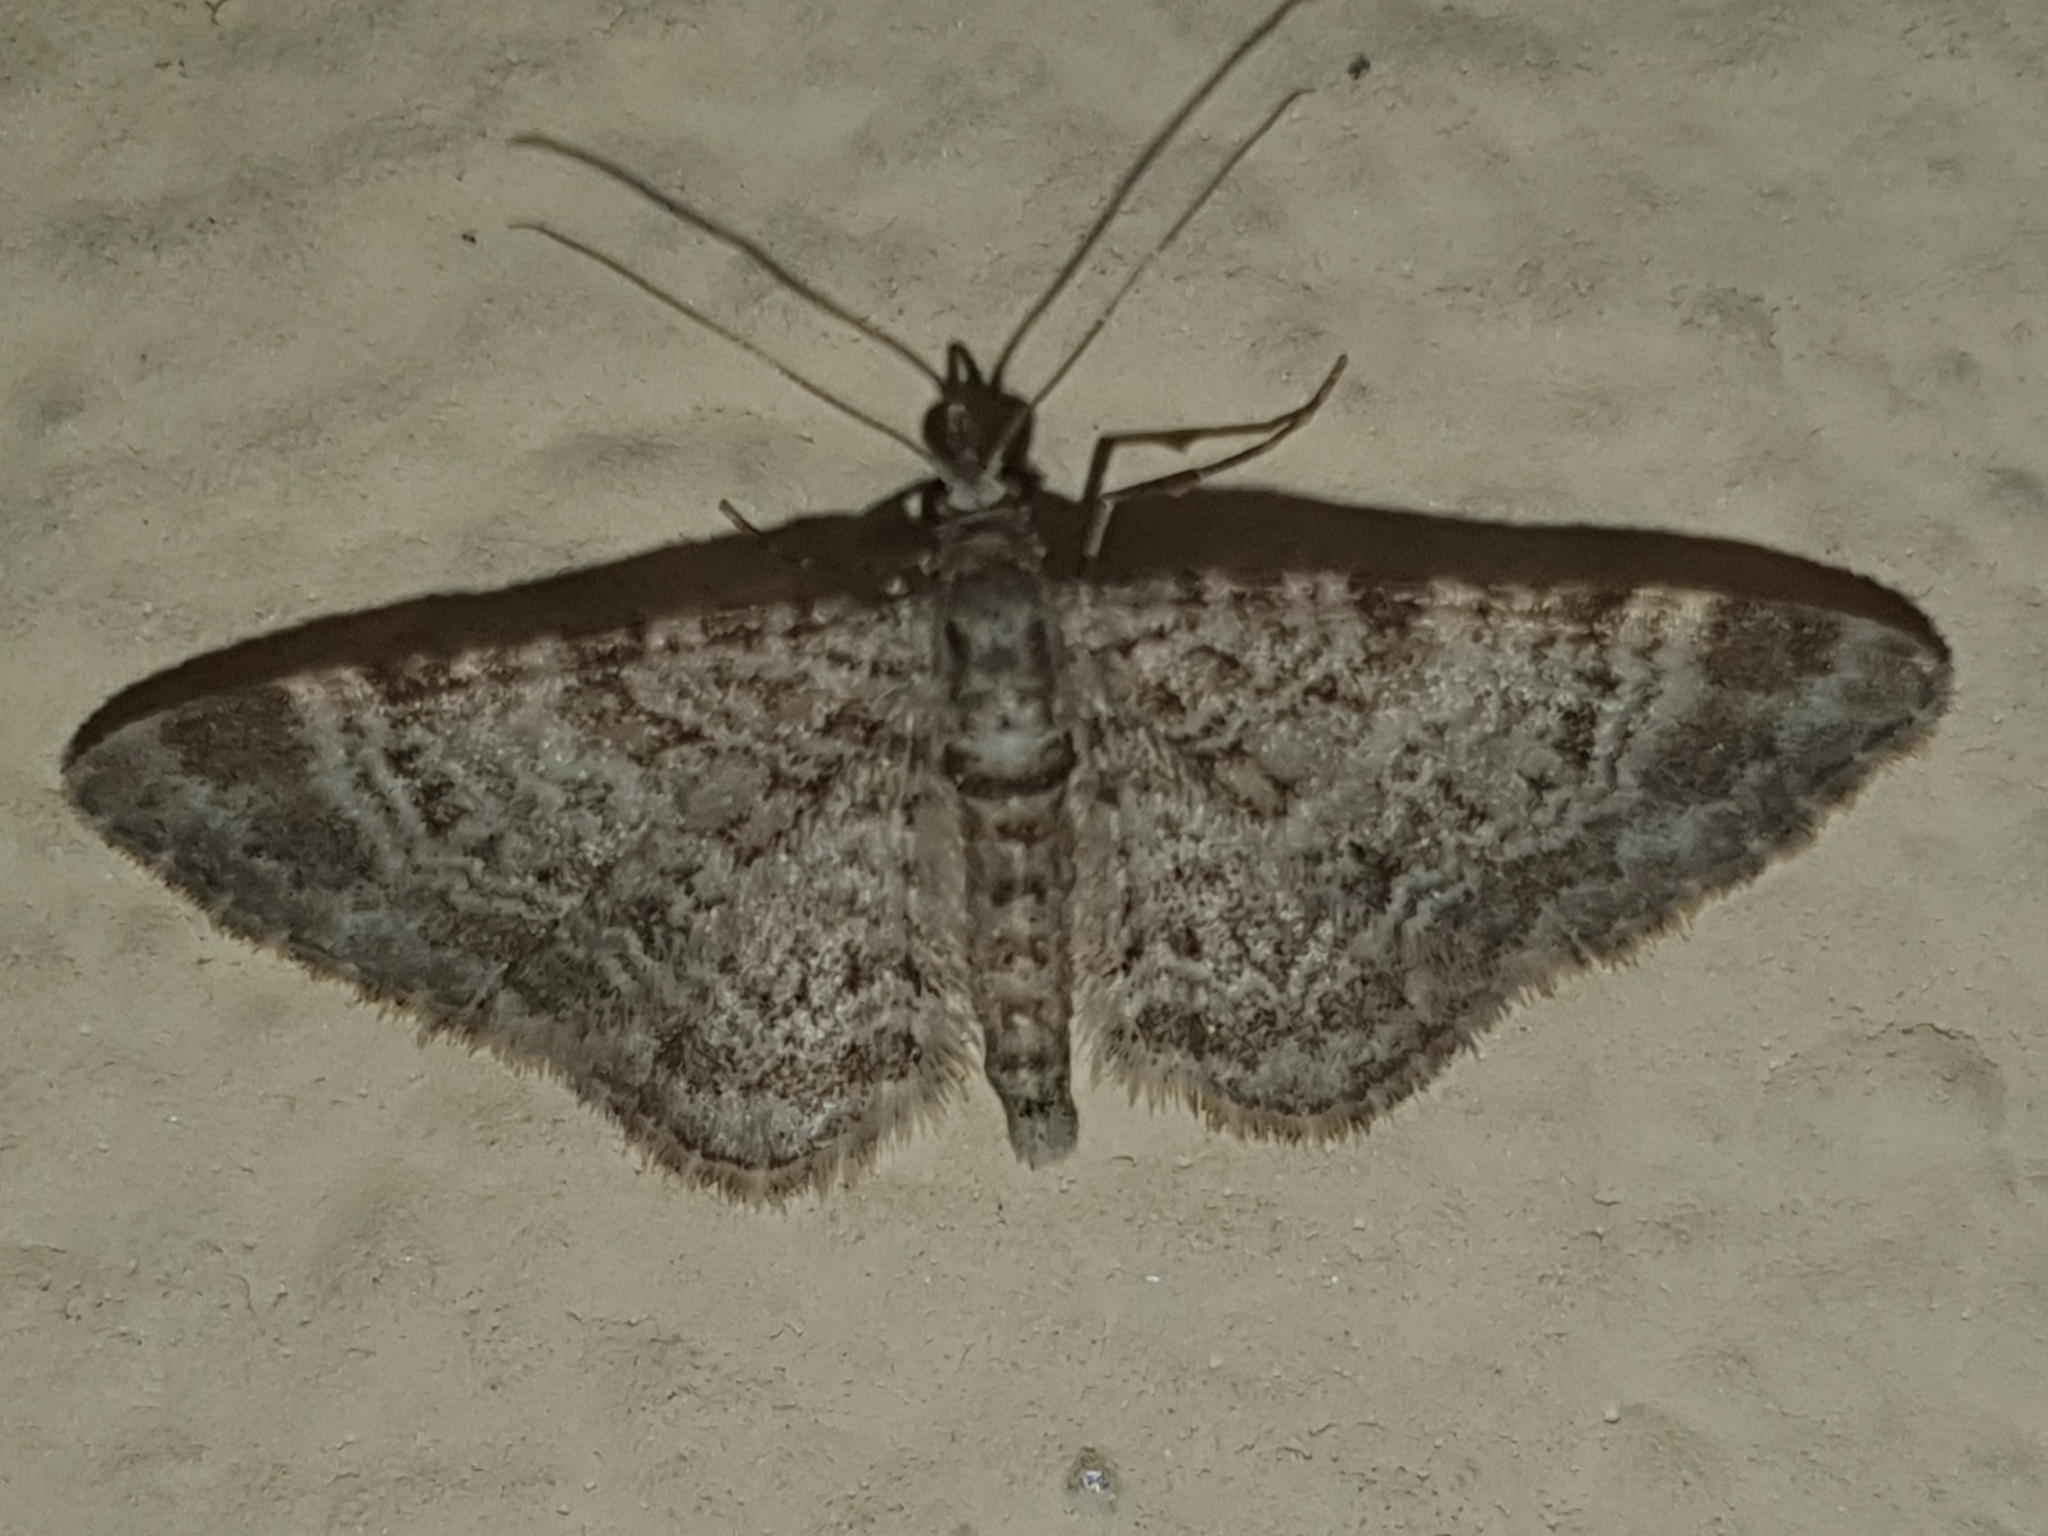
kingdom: Animalia
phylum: Arthropoda
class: Insecta
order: Lepidoptera
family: Geometridae
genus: Gymnoscelis
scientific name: Gymnoscelis rufifasciata
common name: Double-striped pug
